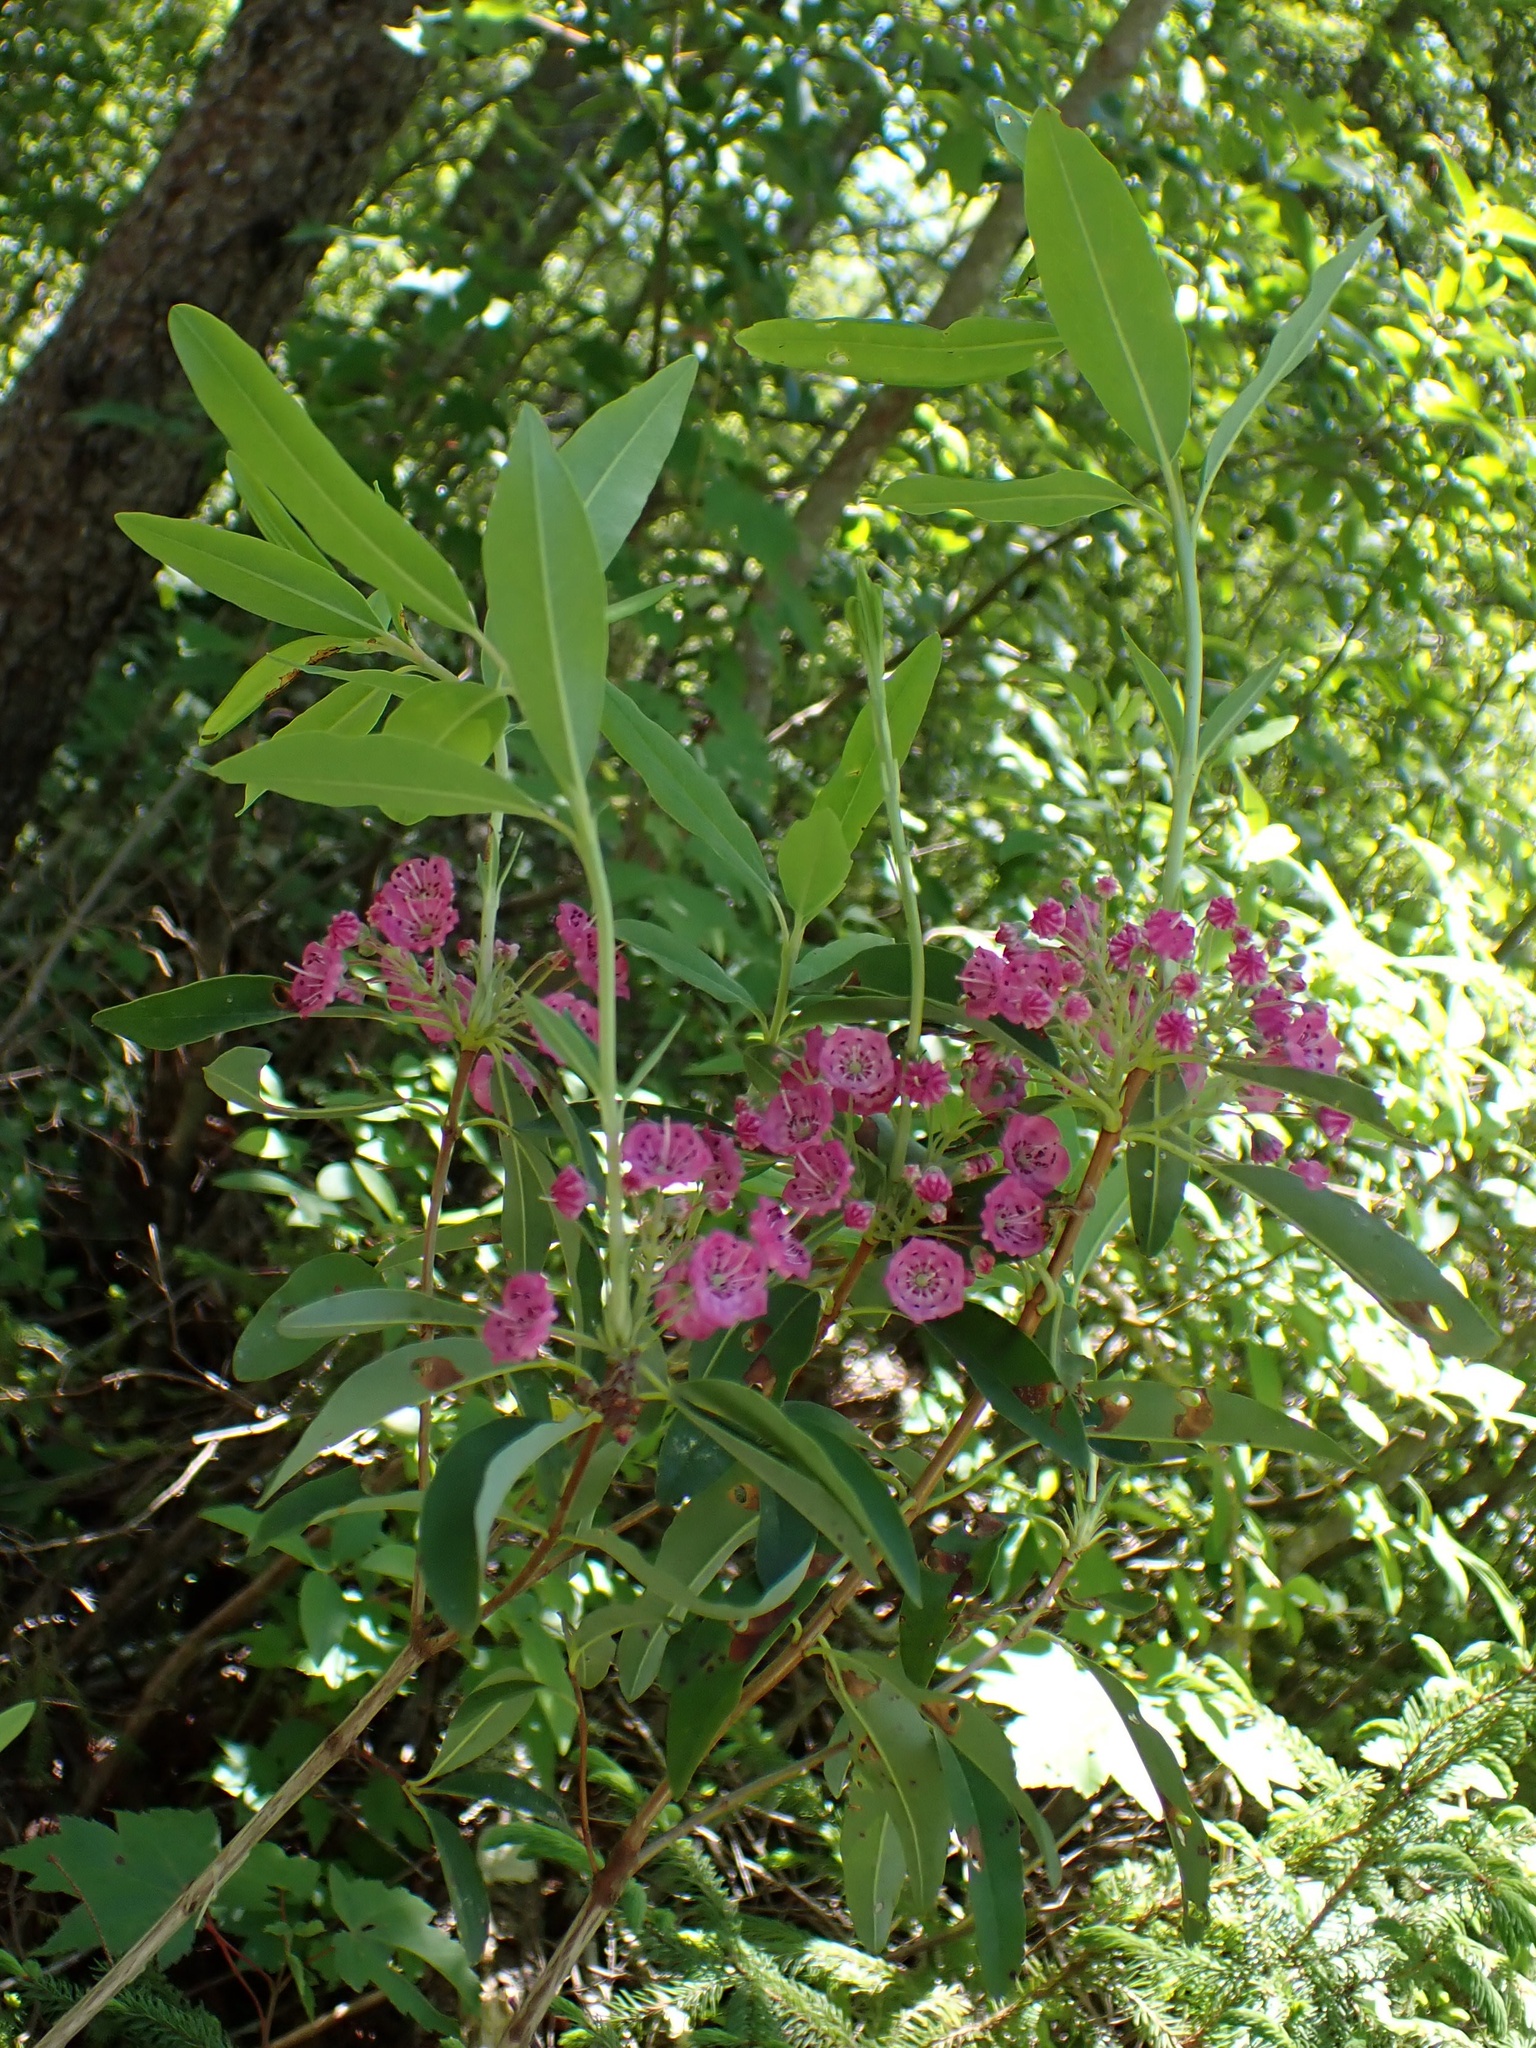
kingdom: Plantae
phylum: Tracheophyta
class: Magnoliopsida
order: Ericales
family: Ericaceae
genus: Kalmia
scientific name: Kalmia angustifolia
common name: Sheep-laurel
